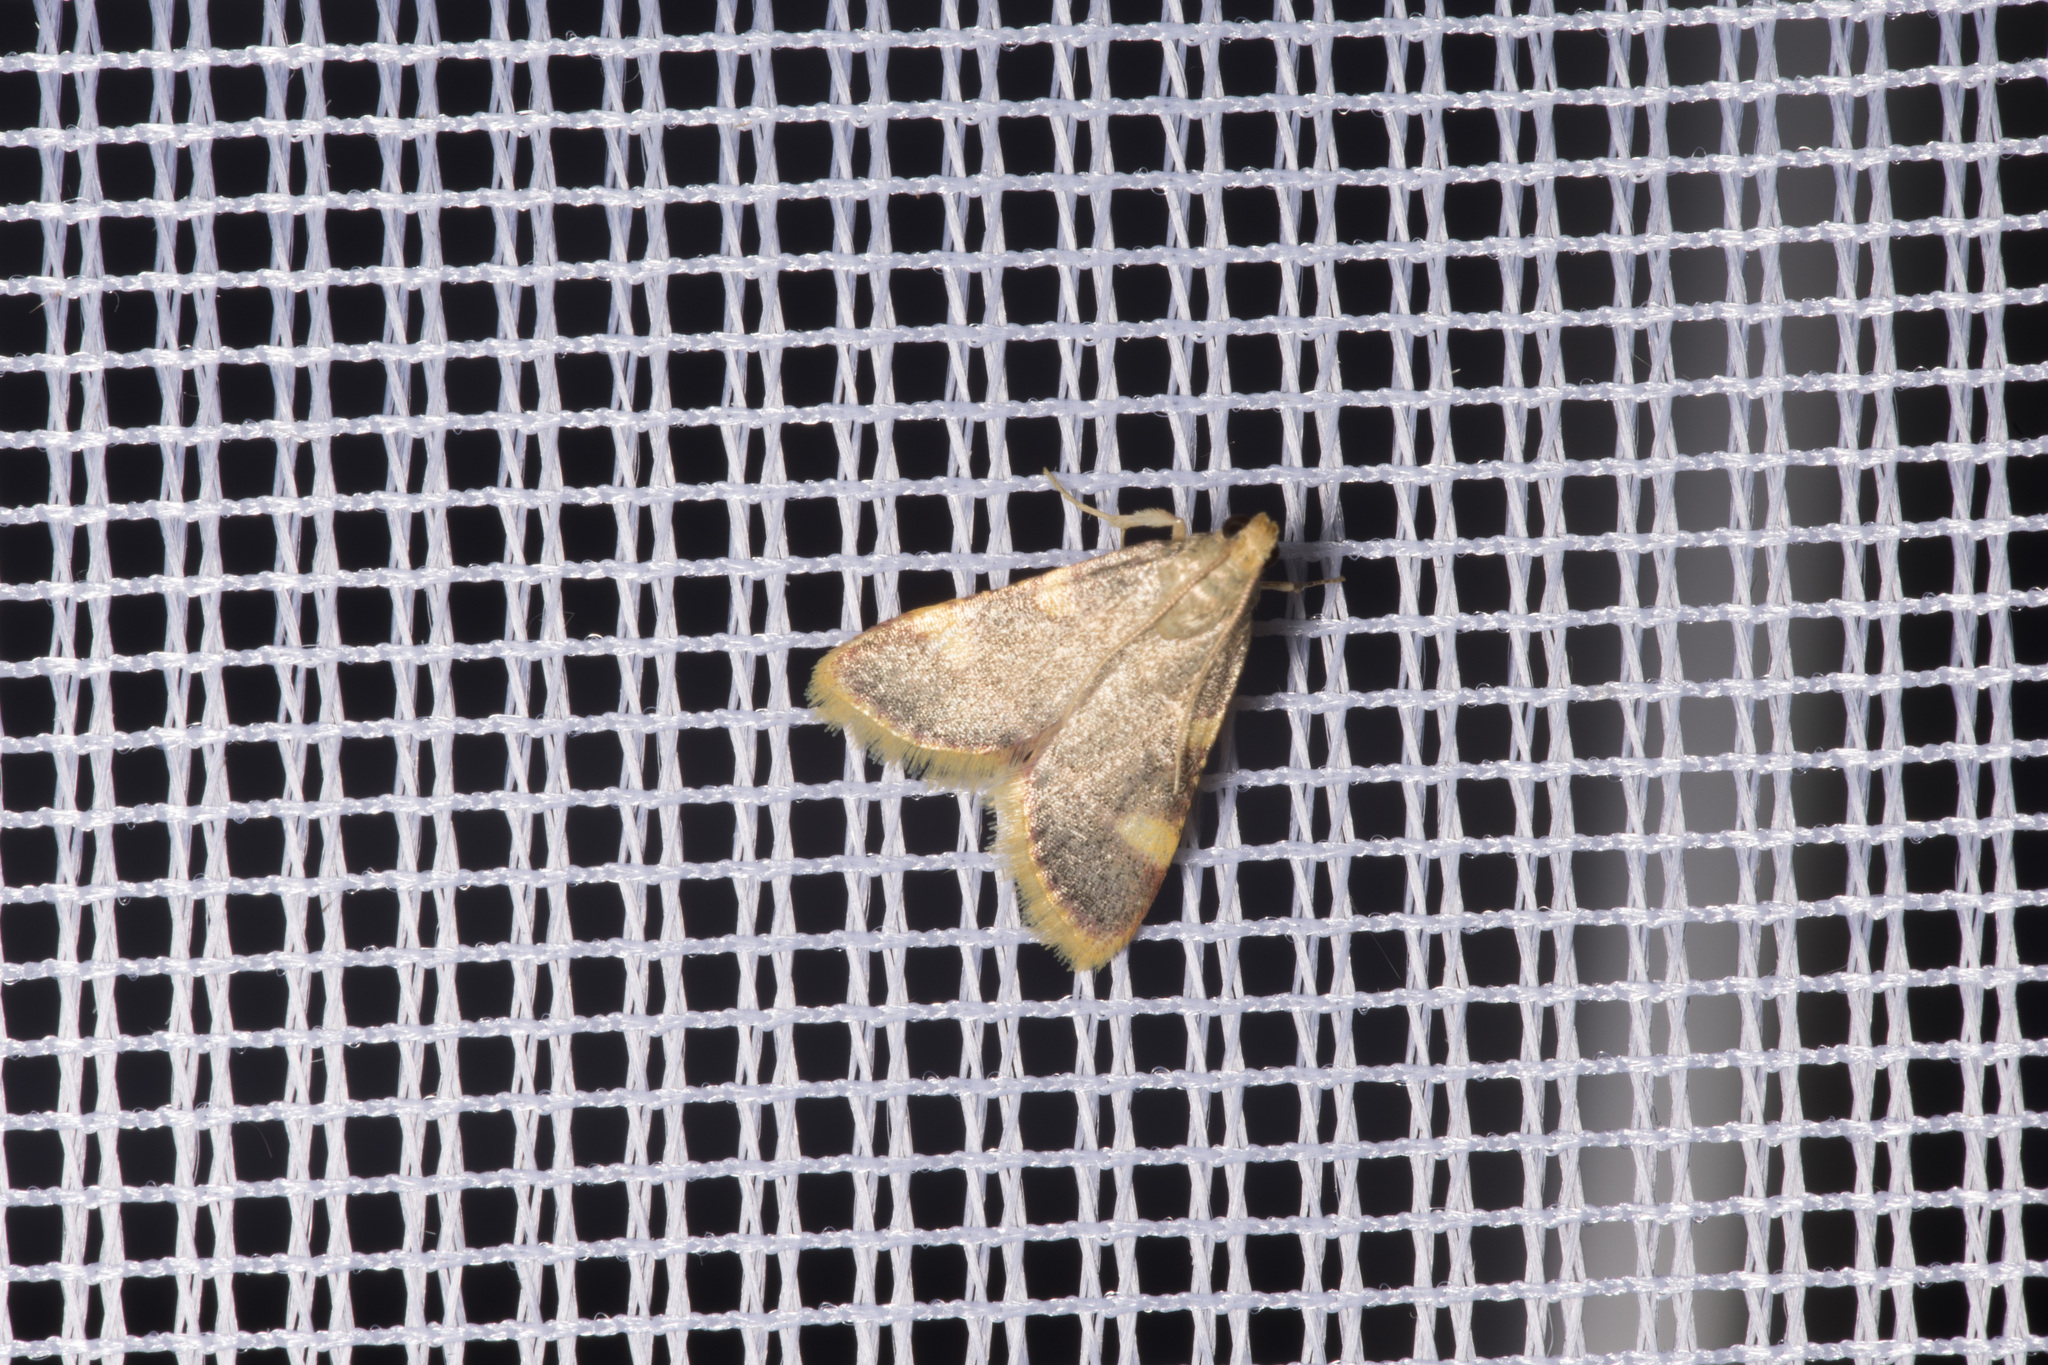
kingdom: Animalia
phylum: Arthropoda
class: Insecta
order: Lepidoptera
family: Pyralidae
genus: Hypsopygia
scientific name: Hypsopygia costalis
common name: Gold triangle
